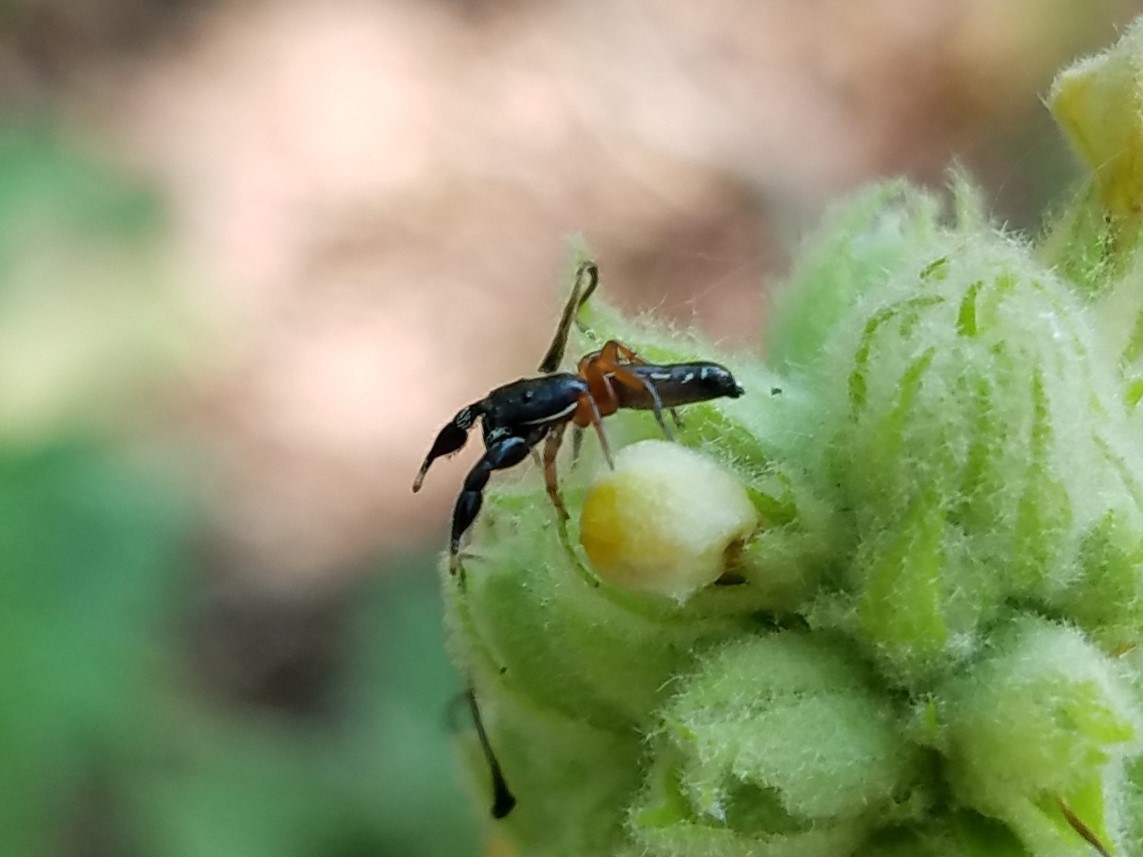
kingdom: Animalia
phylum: Arthropoda
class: Arachnida
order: Araneae
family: Salticidae
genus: Metacyrba
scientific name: Metacyrba floridana
